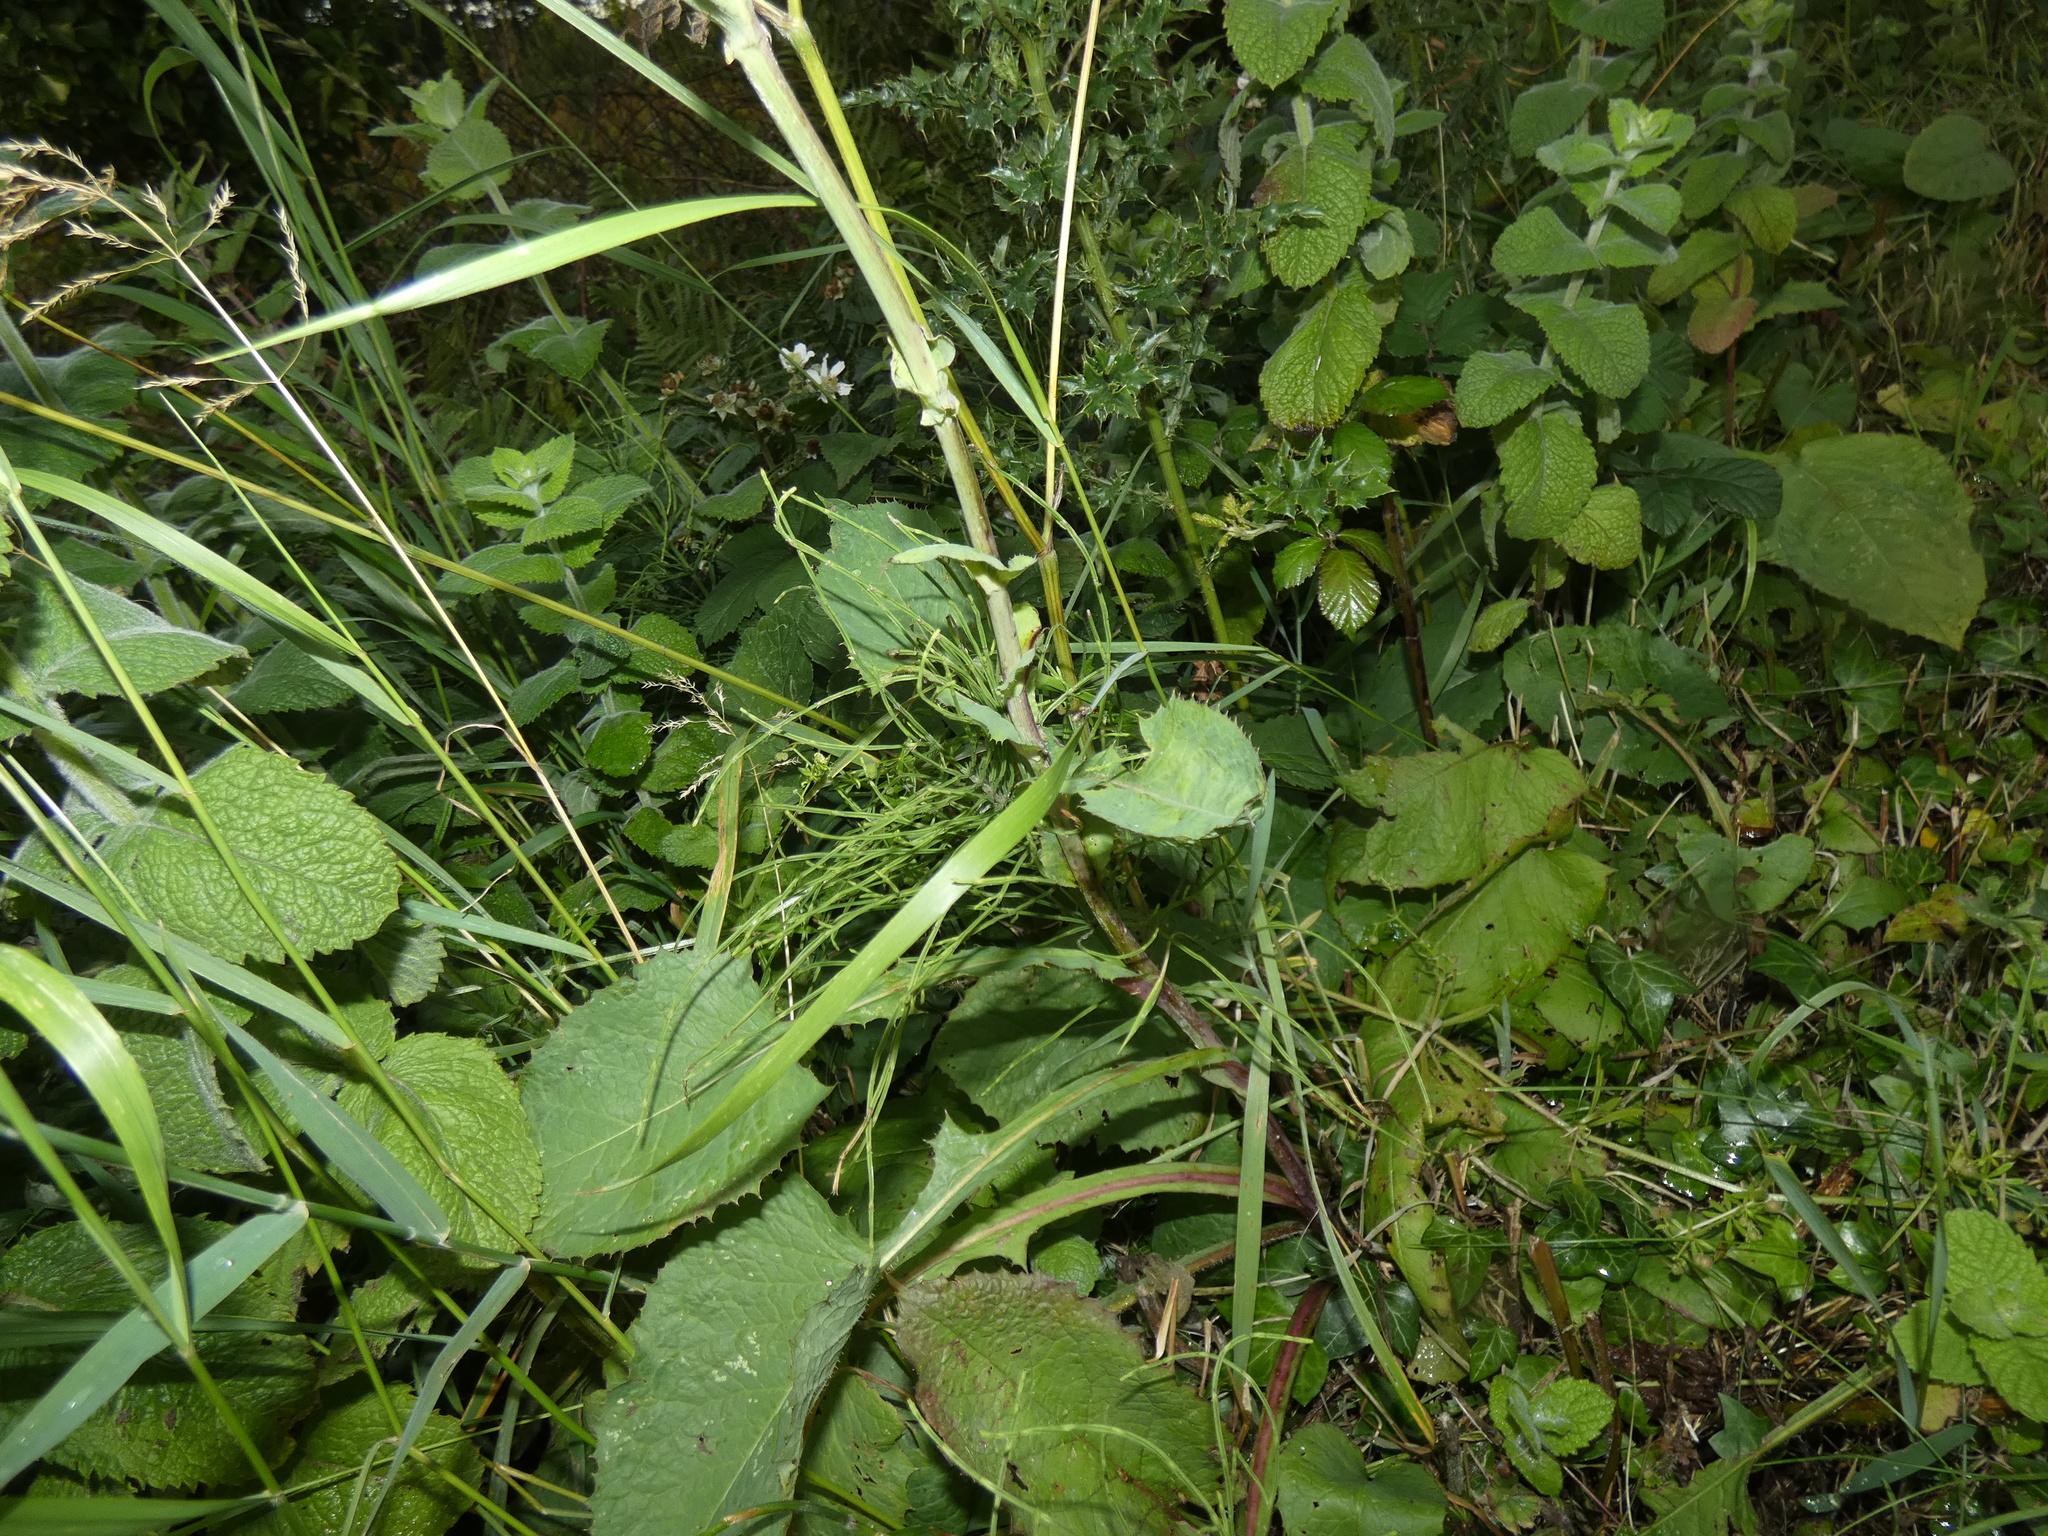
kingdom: Plantae
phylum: Tracheophyta
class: Magnoliopsida
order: Asterales
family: Asteraceae
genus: Lactuca
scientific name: Lactuca macrophylla
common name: Common blue-sow-thistle
